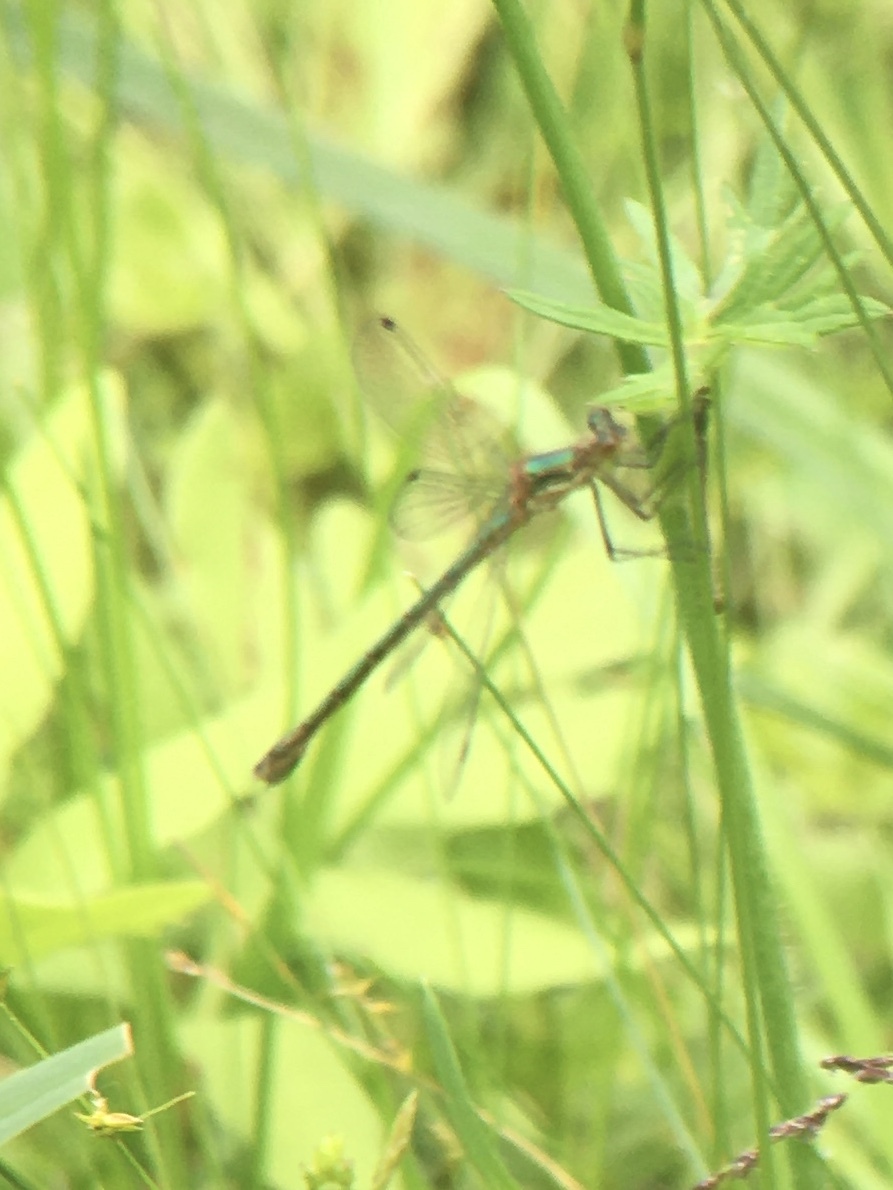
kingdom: Animalia
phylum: Arthropoda
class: Insecta
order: Odonata
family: Lestidae
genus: Lestes
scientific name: Lestes dryas
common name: Scarce emerald damselfly
